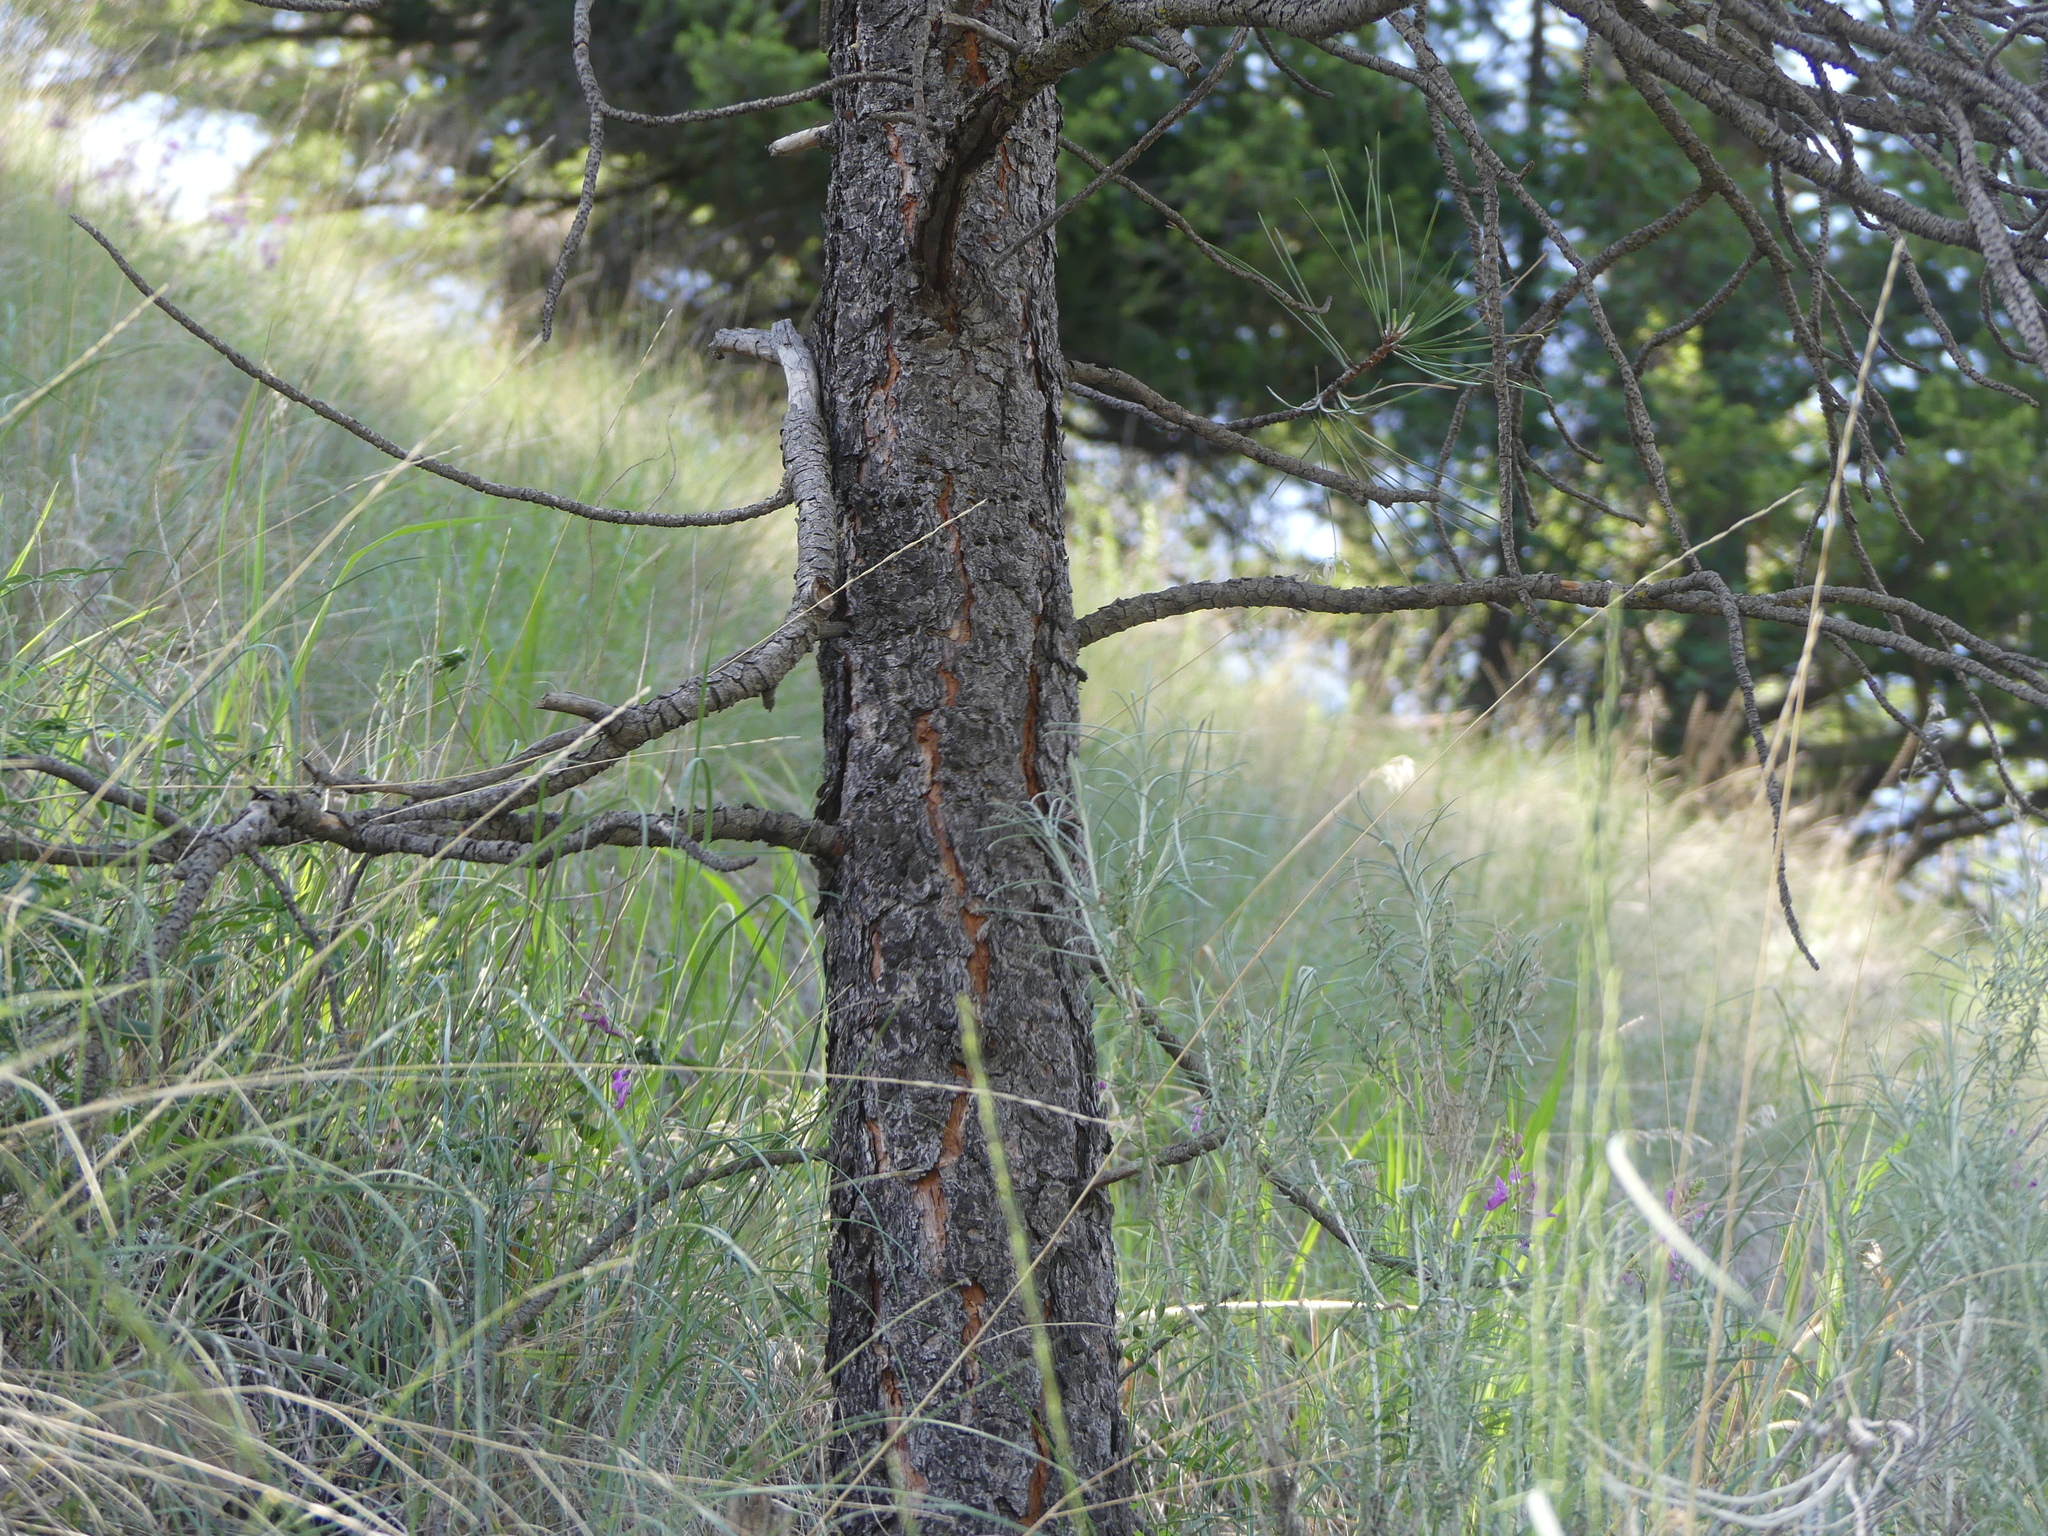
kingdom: Plantae
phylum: Tracheophyta
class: Pinopsida
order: Pinales
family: Pinaceae
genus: Pinus
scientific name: Pinus ponderosa
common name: Western yellow-pine
